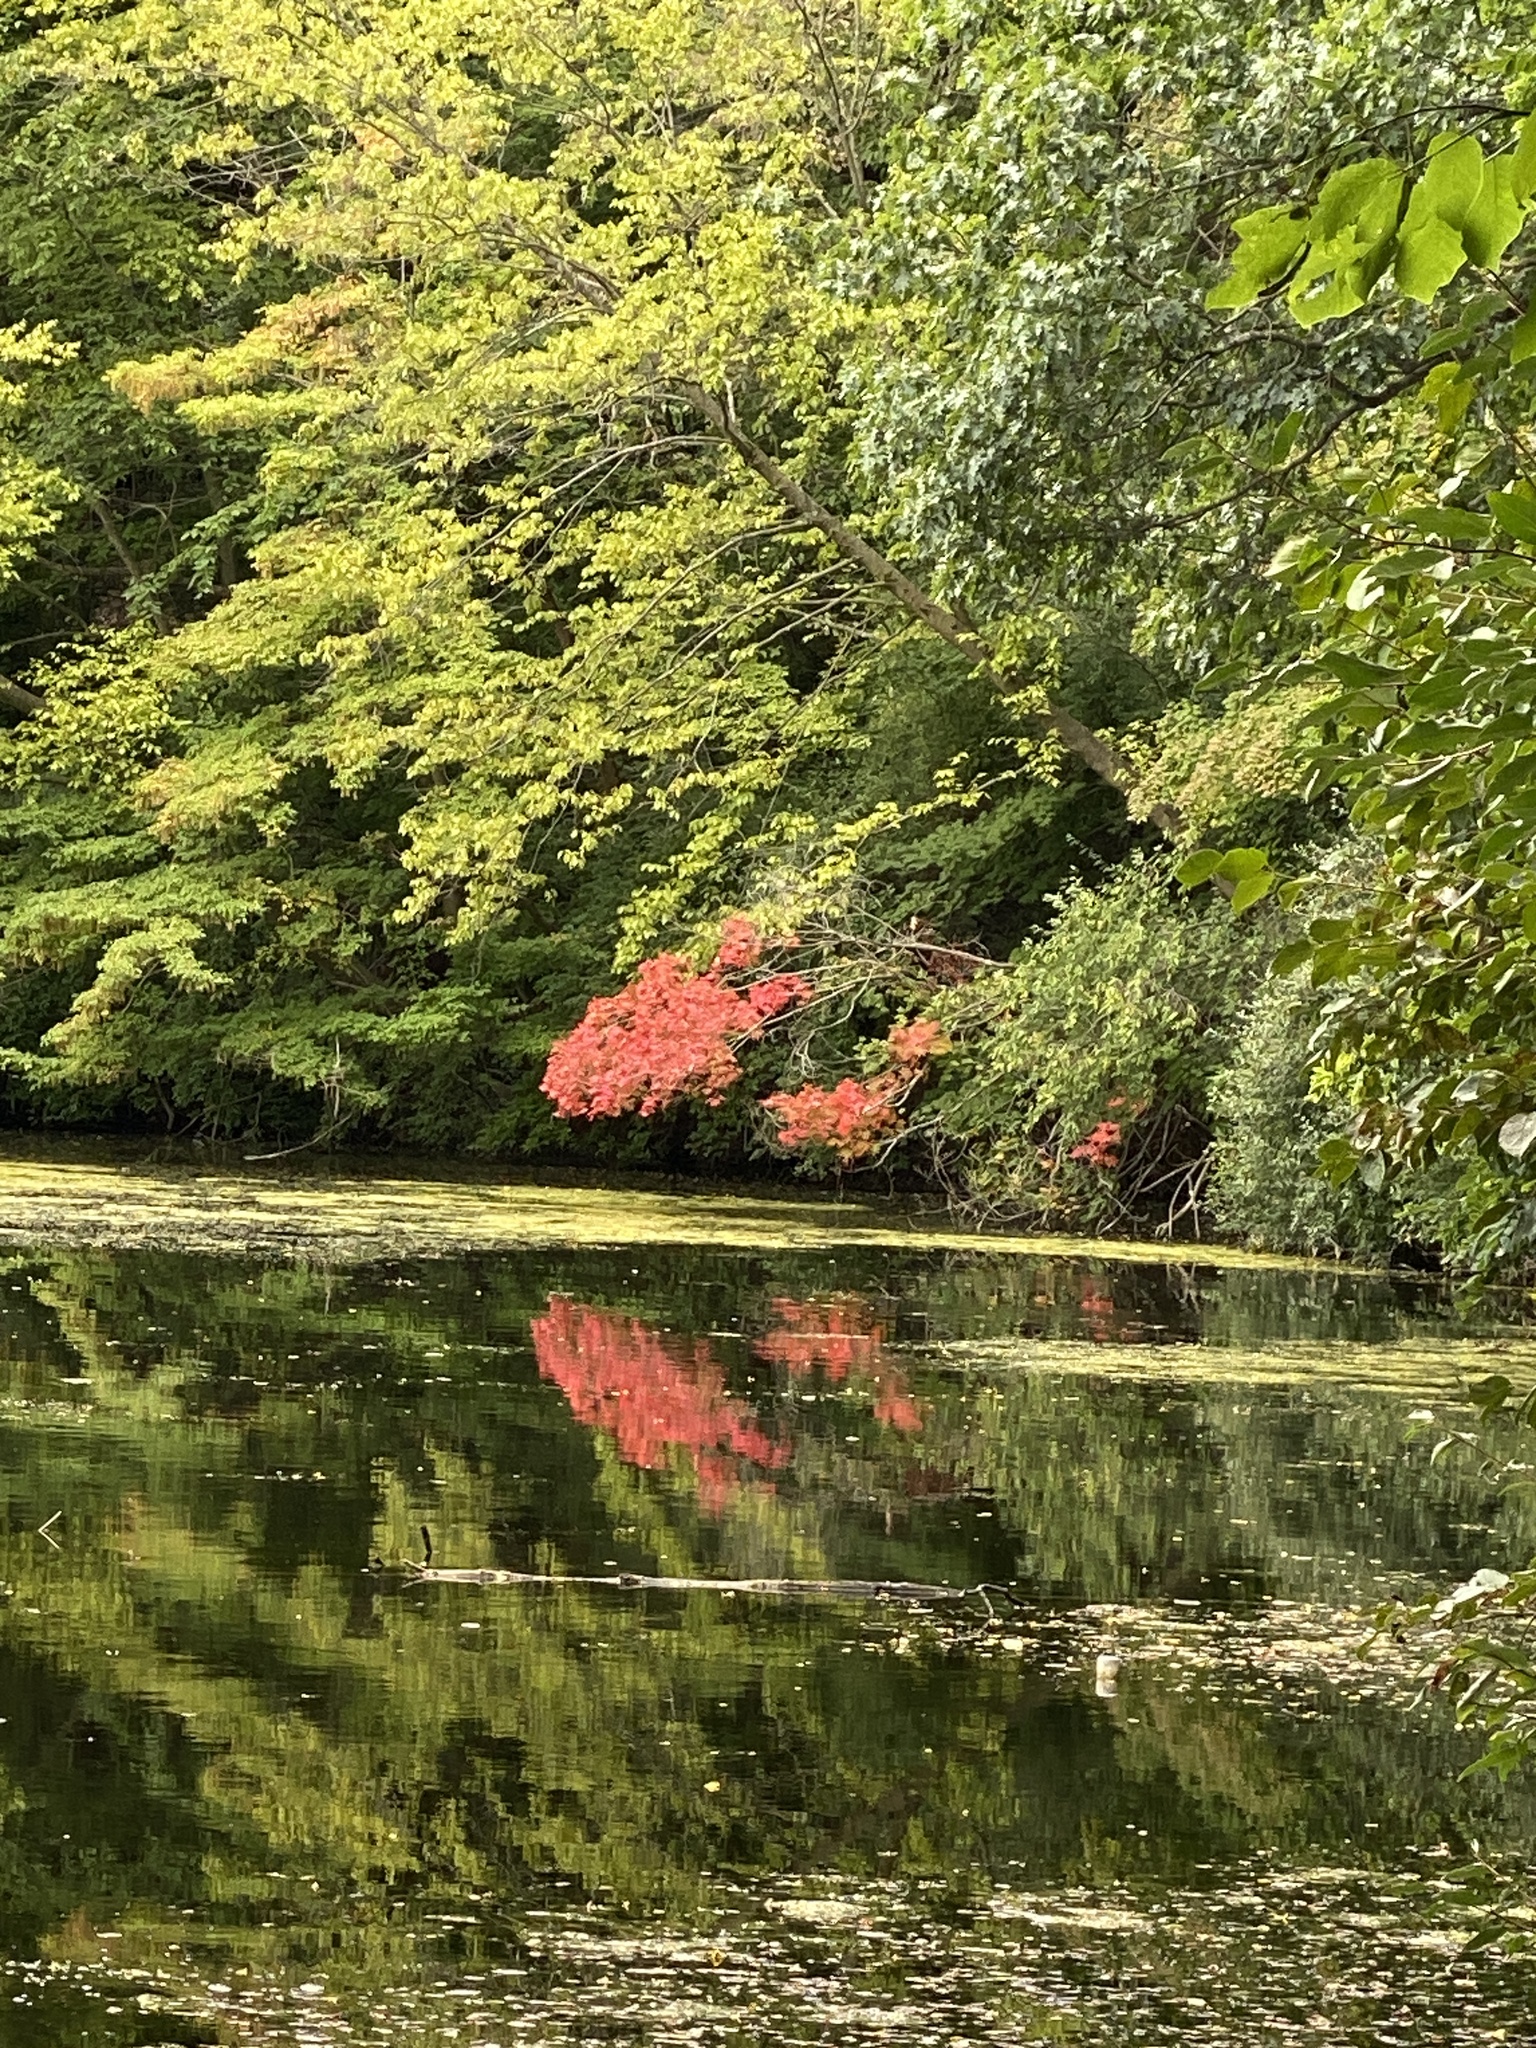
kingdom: Plantae
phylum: Tracheophyta
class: Magnoliopsida
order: Sapindales
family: Sapindaceae
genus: Acer
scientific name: Acer rubrum
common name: Red maple
